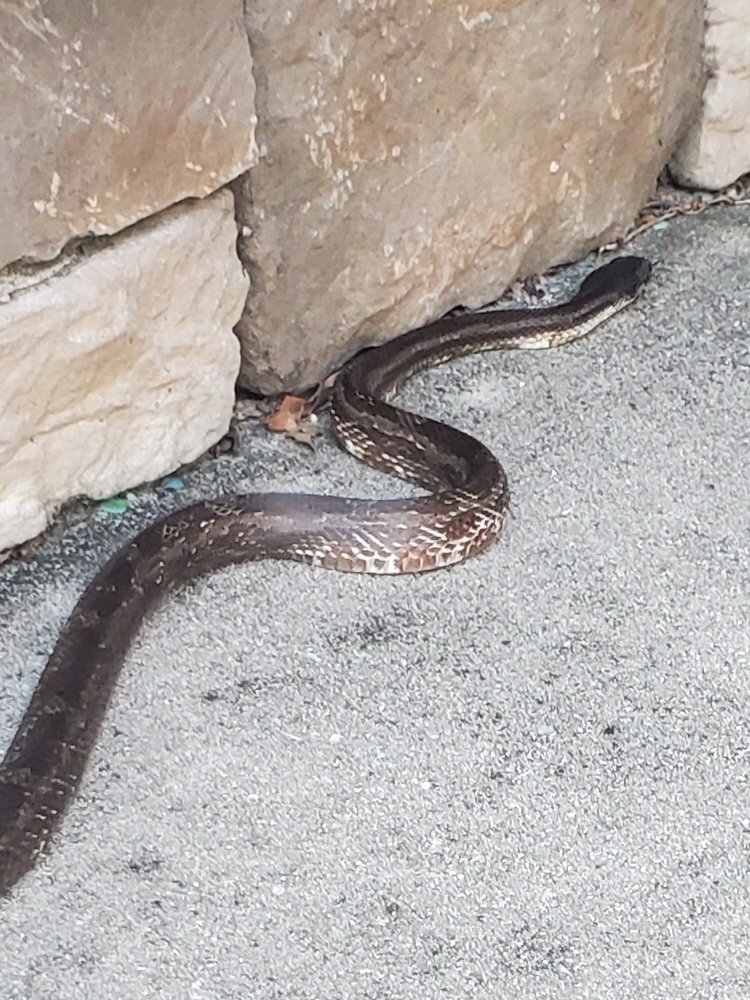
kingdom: Animalia
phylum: Chordata
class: Squamata
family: Colubridae
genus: Pantherophis
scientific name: Pantherophis spiloides
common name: Gray rat snake
